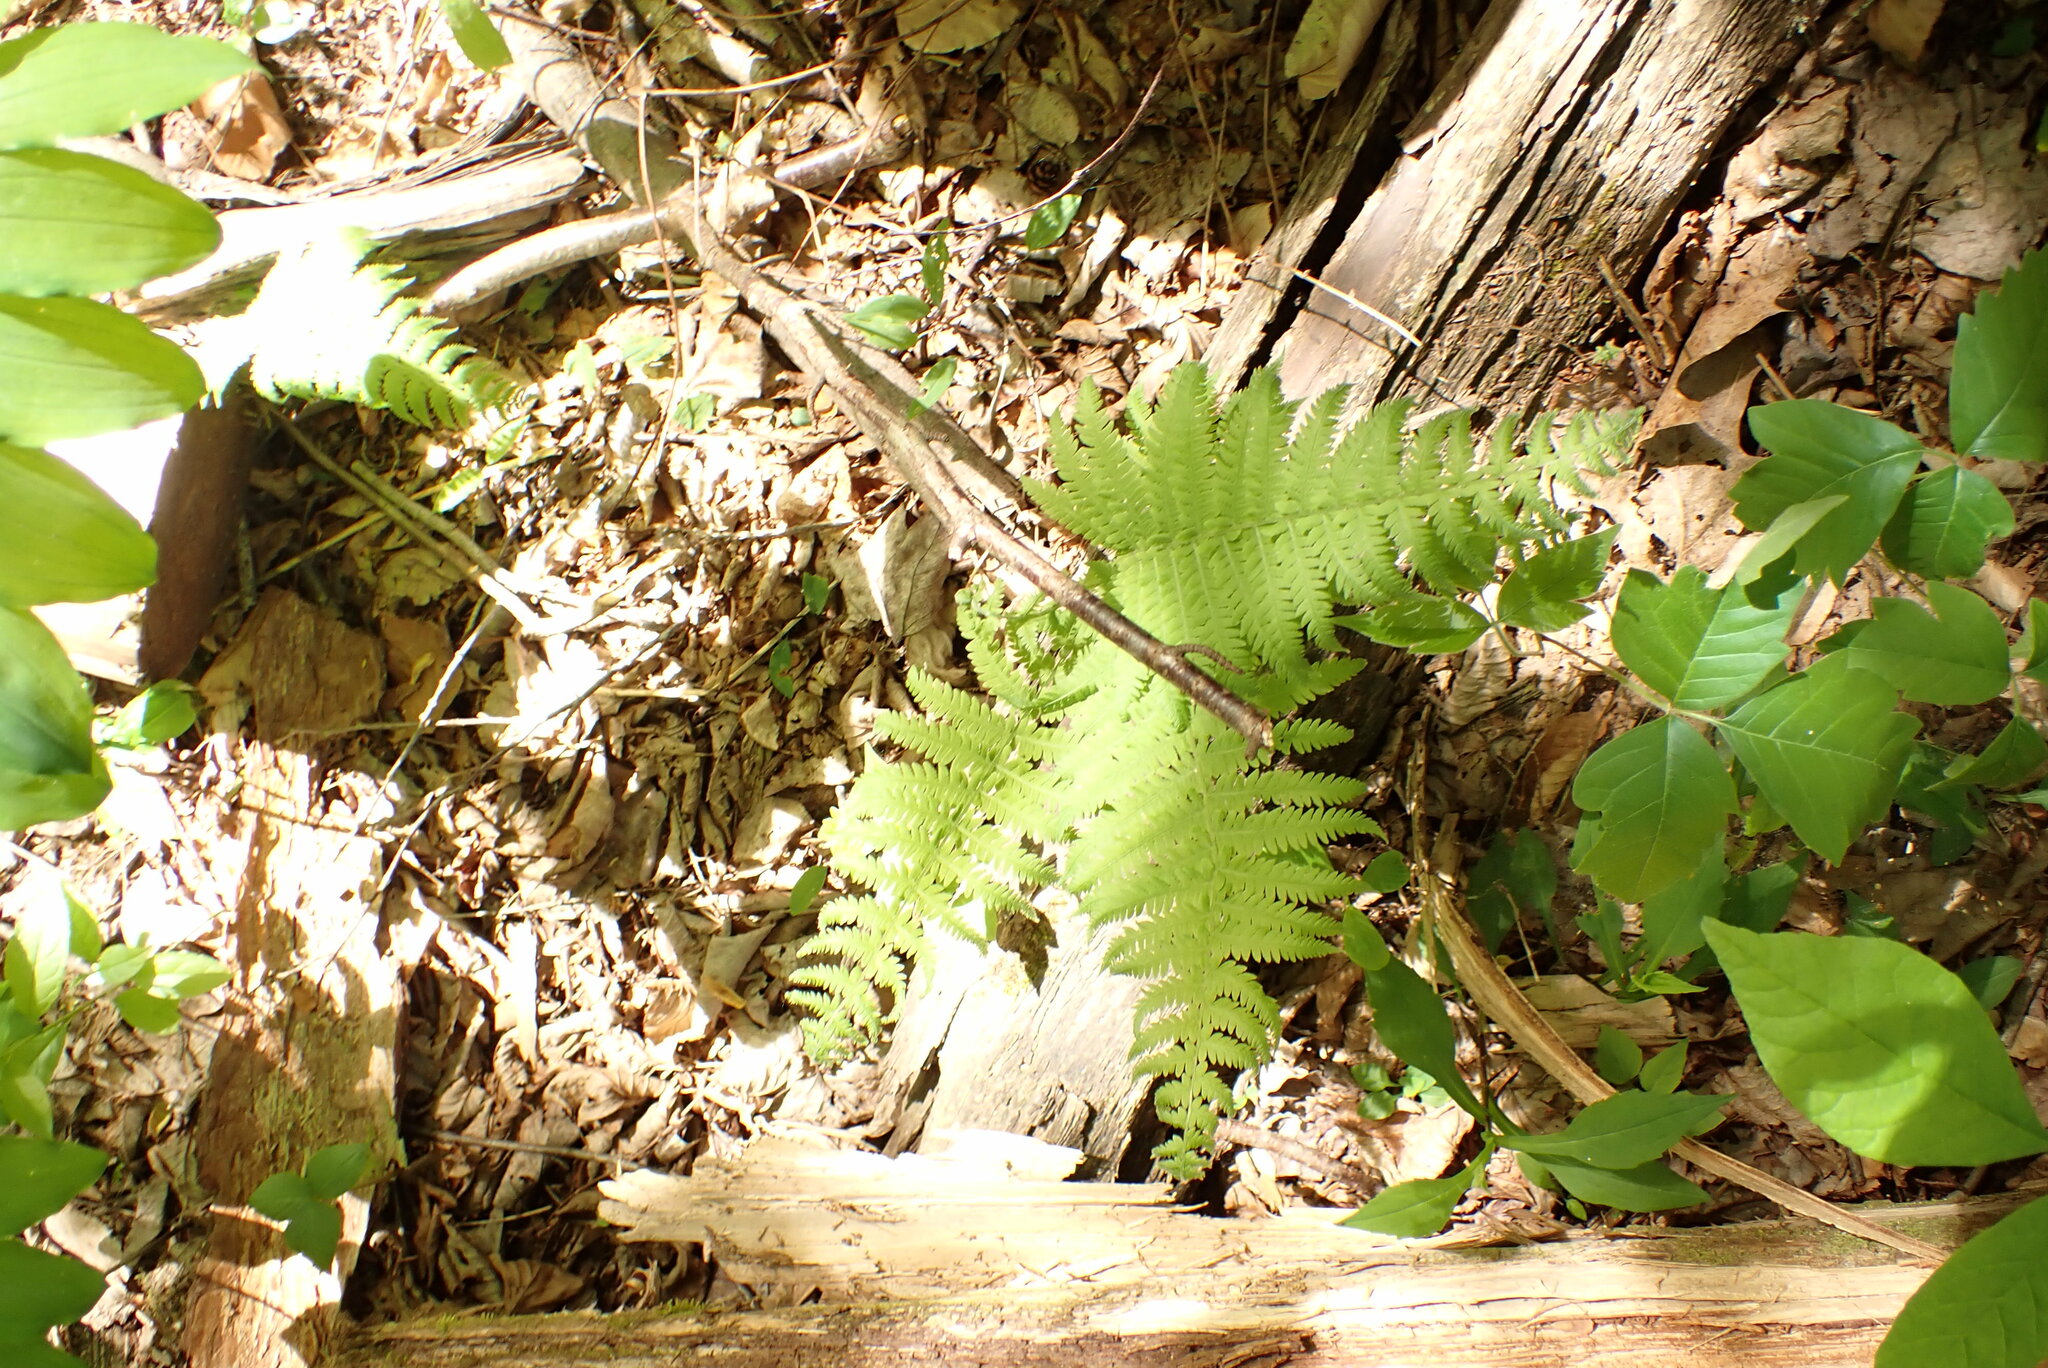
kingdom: Plantae
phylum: Tracheophyta
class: Polypodiopsida
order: Polypodiales
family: Thelypteridaceae
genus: Amauropelta
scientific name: Amauropelta noveboracensis
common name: New york fern
